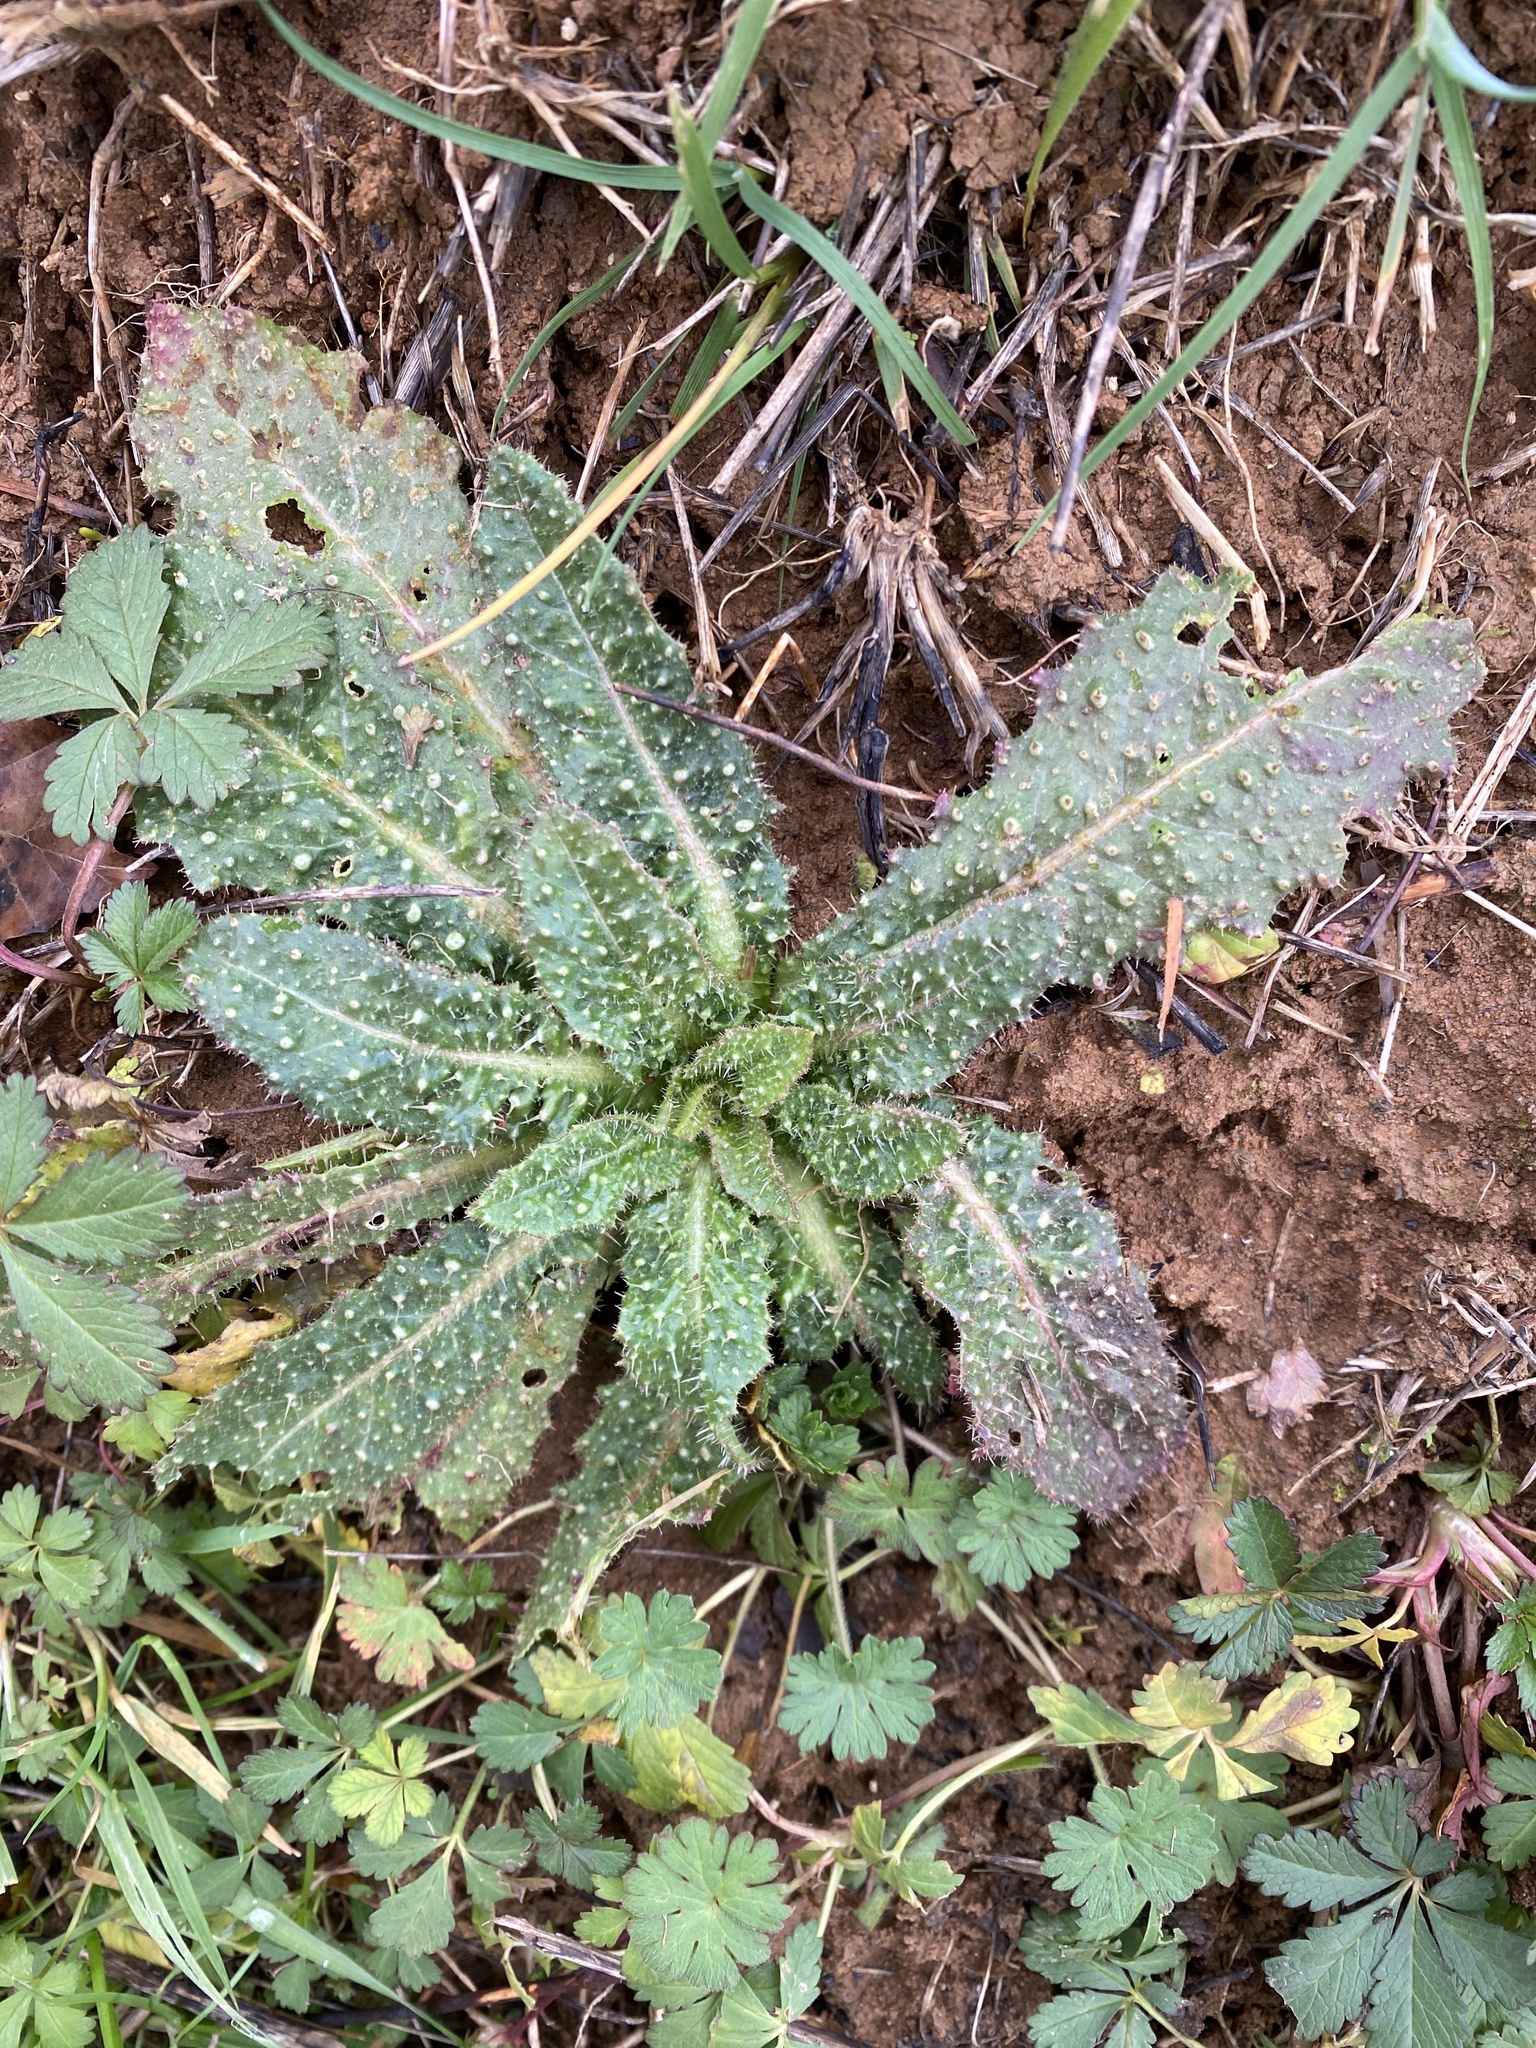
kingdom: Plantae
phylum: Tracheophyta
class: Magnoliopsida
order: Asterales
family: Asteraceae
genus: Helminthotheca
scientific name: Helminthotheca echioides
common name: Ox-tongue
